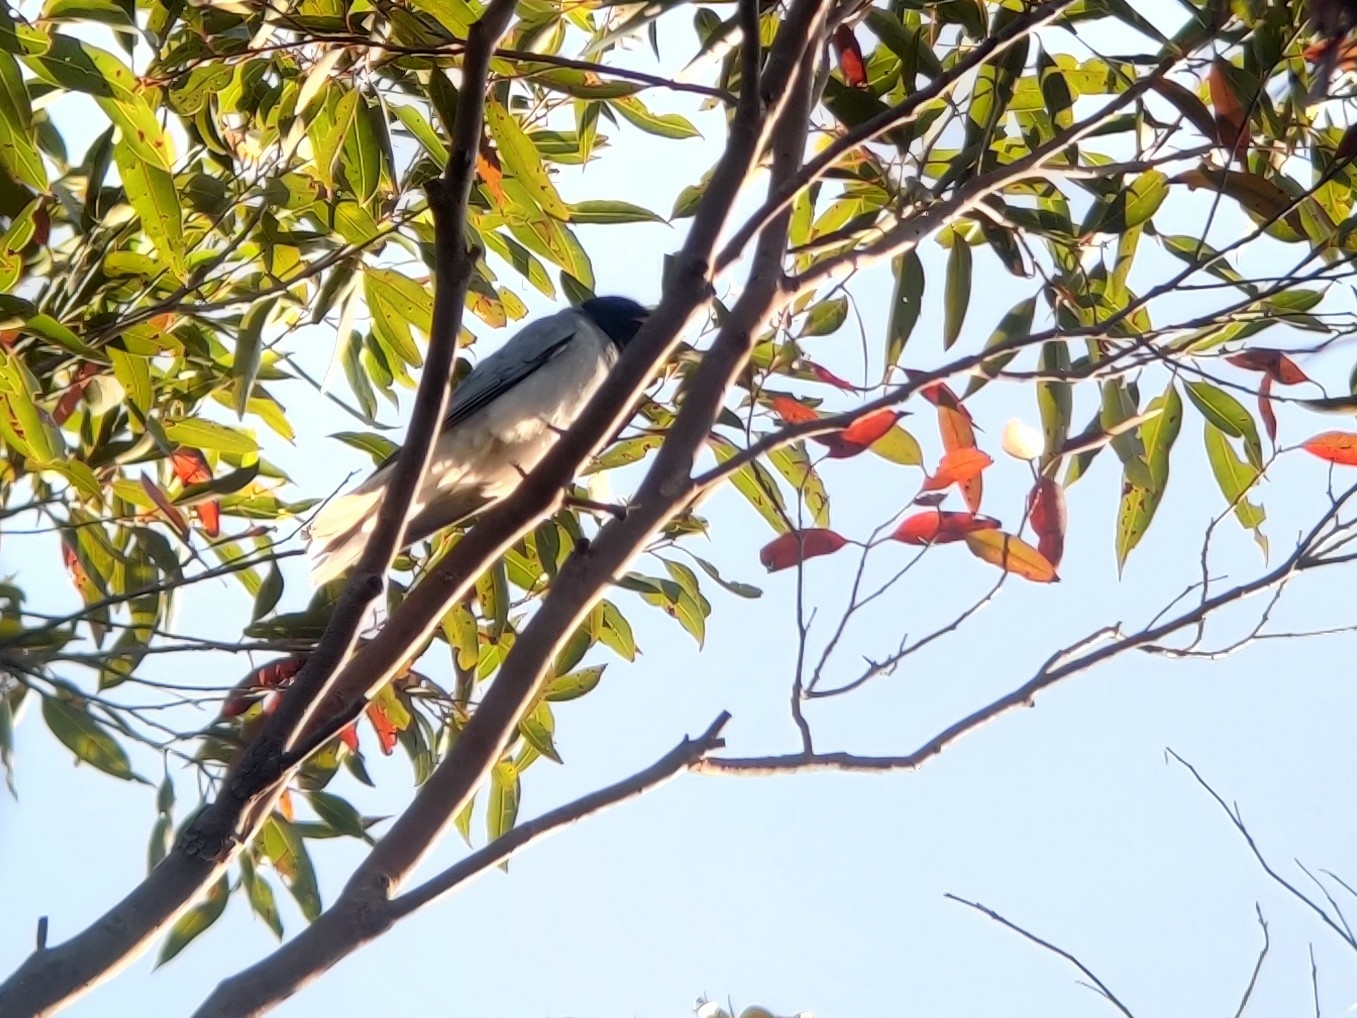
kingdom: Animalia
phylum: Chordata
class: Aves
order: Passeriformes
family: Campephagidae
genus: Coracina
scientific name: Coracina novaehollandiae
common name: Black-faced cuckooshrike
